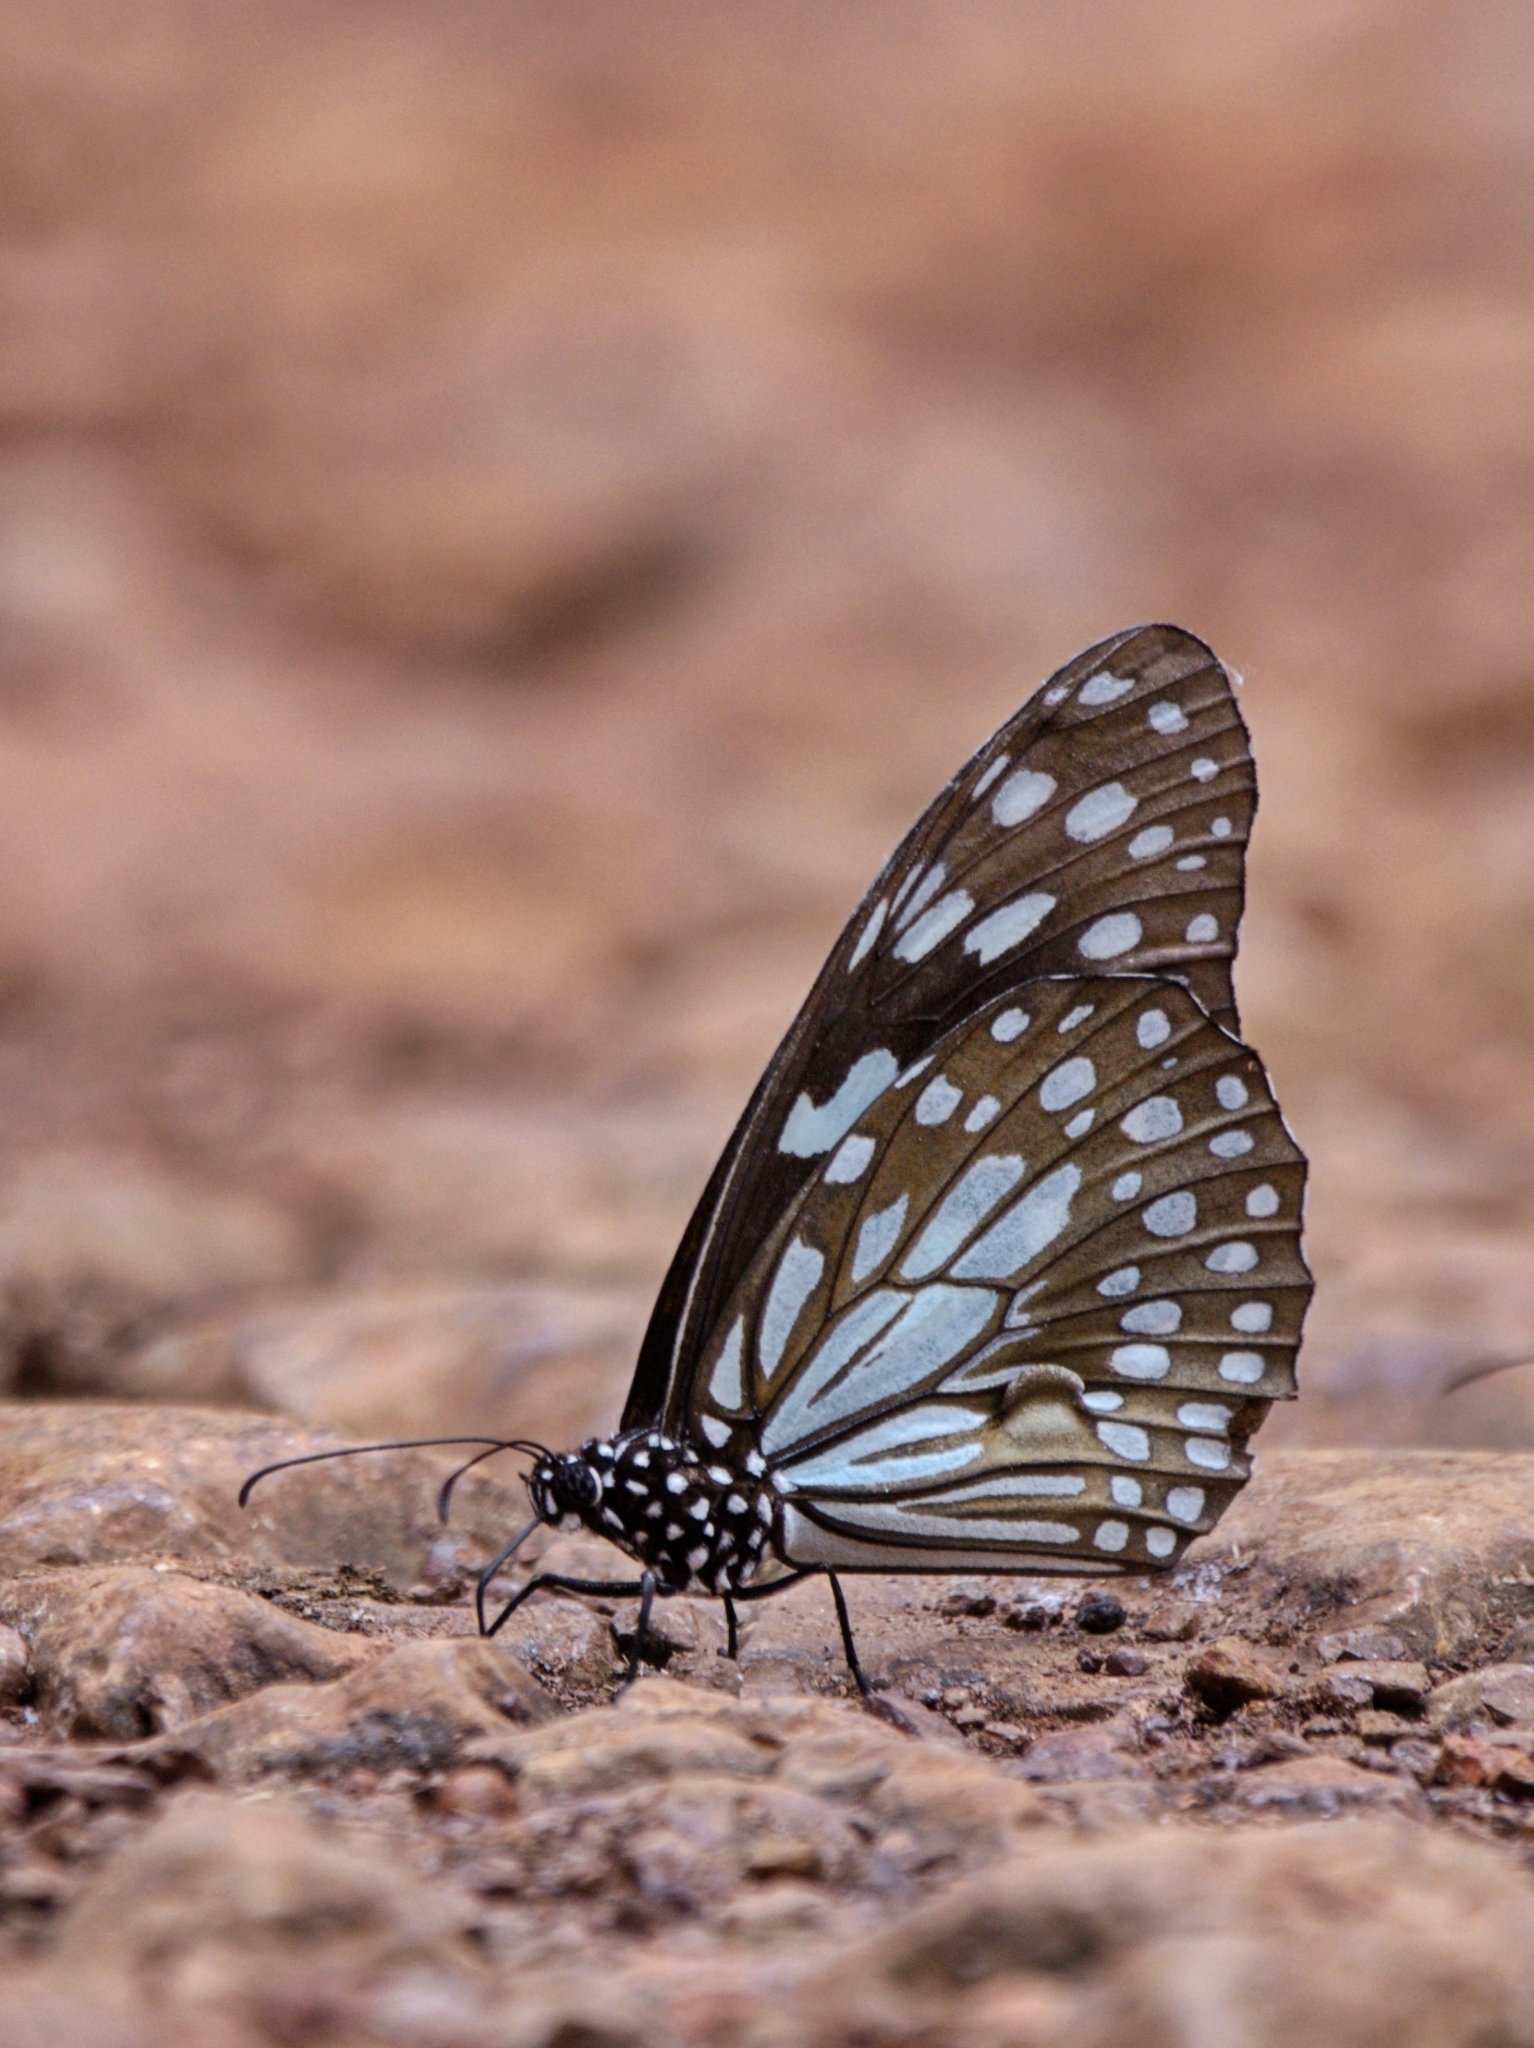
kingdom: Animalia
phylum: Arthropoda
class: Insecta
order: Lepidoptera
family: Nymphalidae
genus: Tirumala
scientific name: Tirumala limniace
